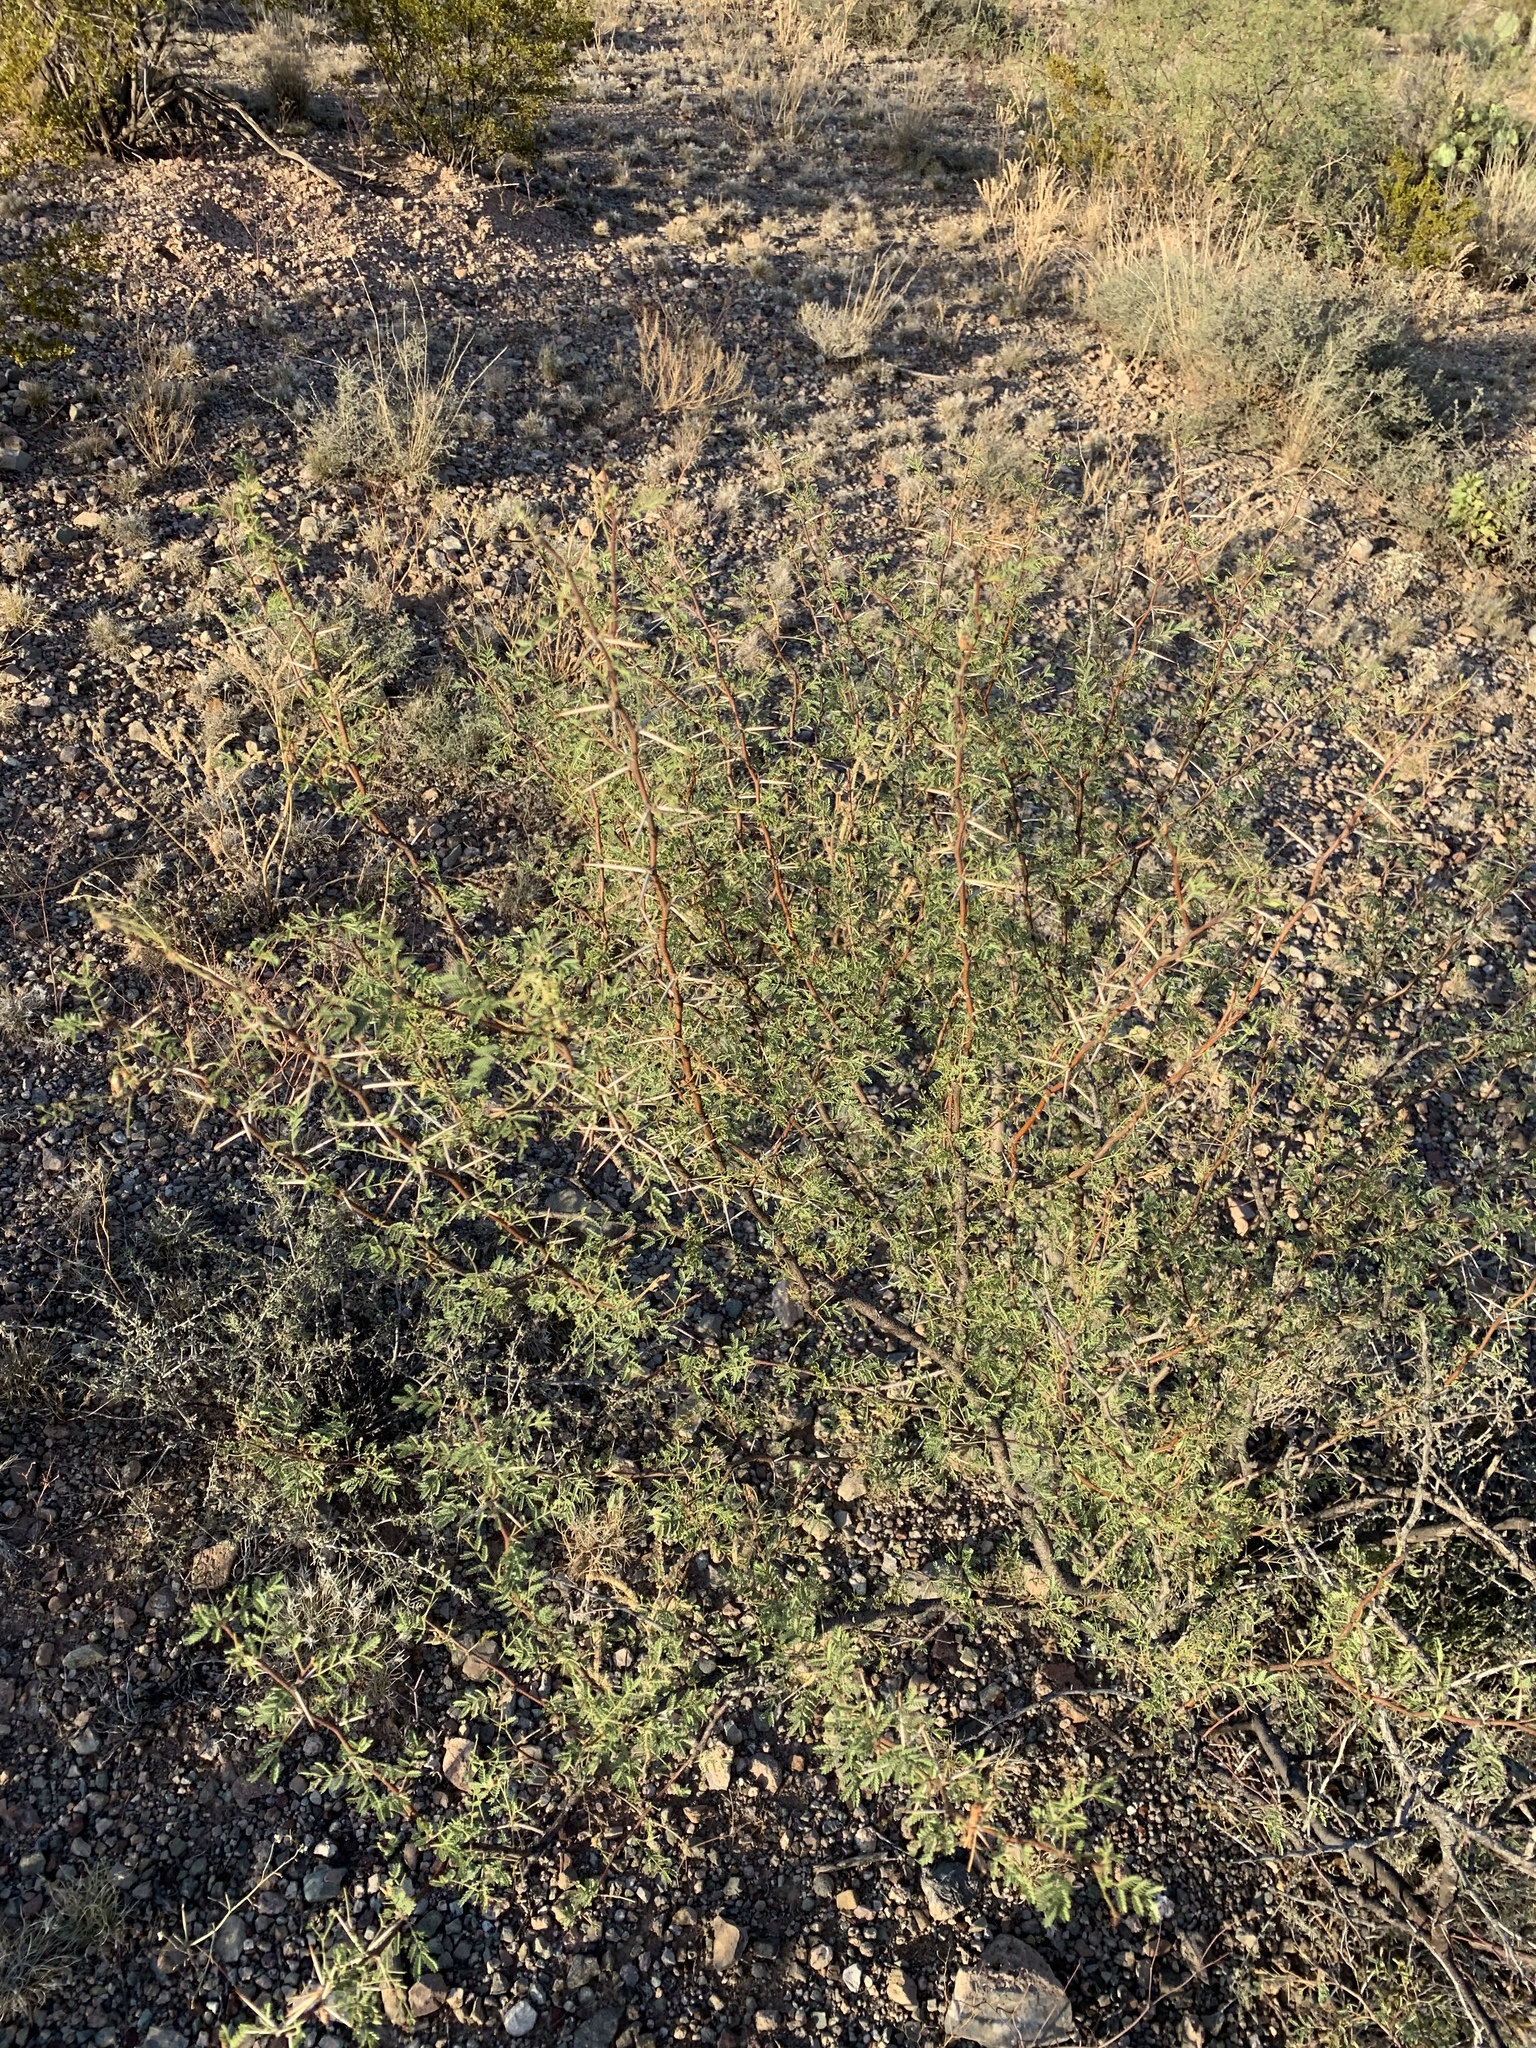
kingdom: Plantae
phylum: Tracheophyta
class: Magnoliopsida
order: Fabales
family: Fabaceae
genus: Vachellia
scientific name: Vachellia constricta
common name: Mescat acacia
